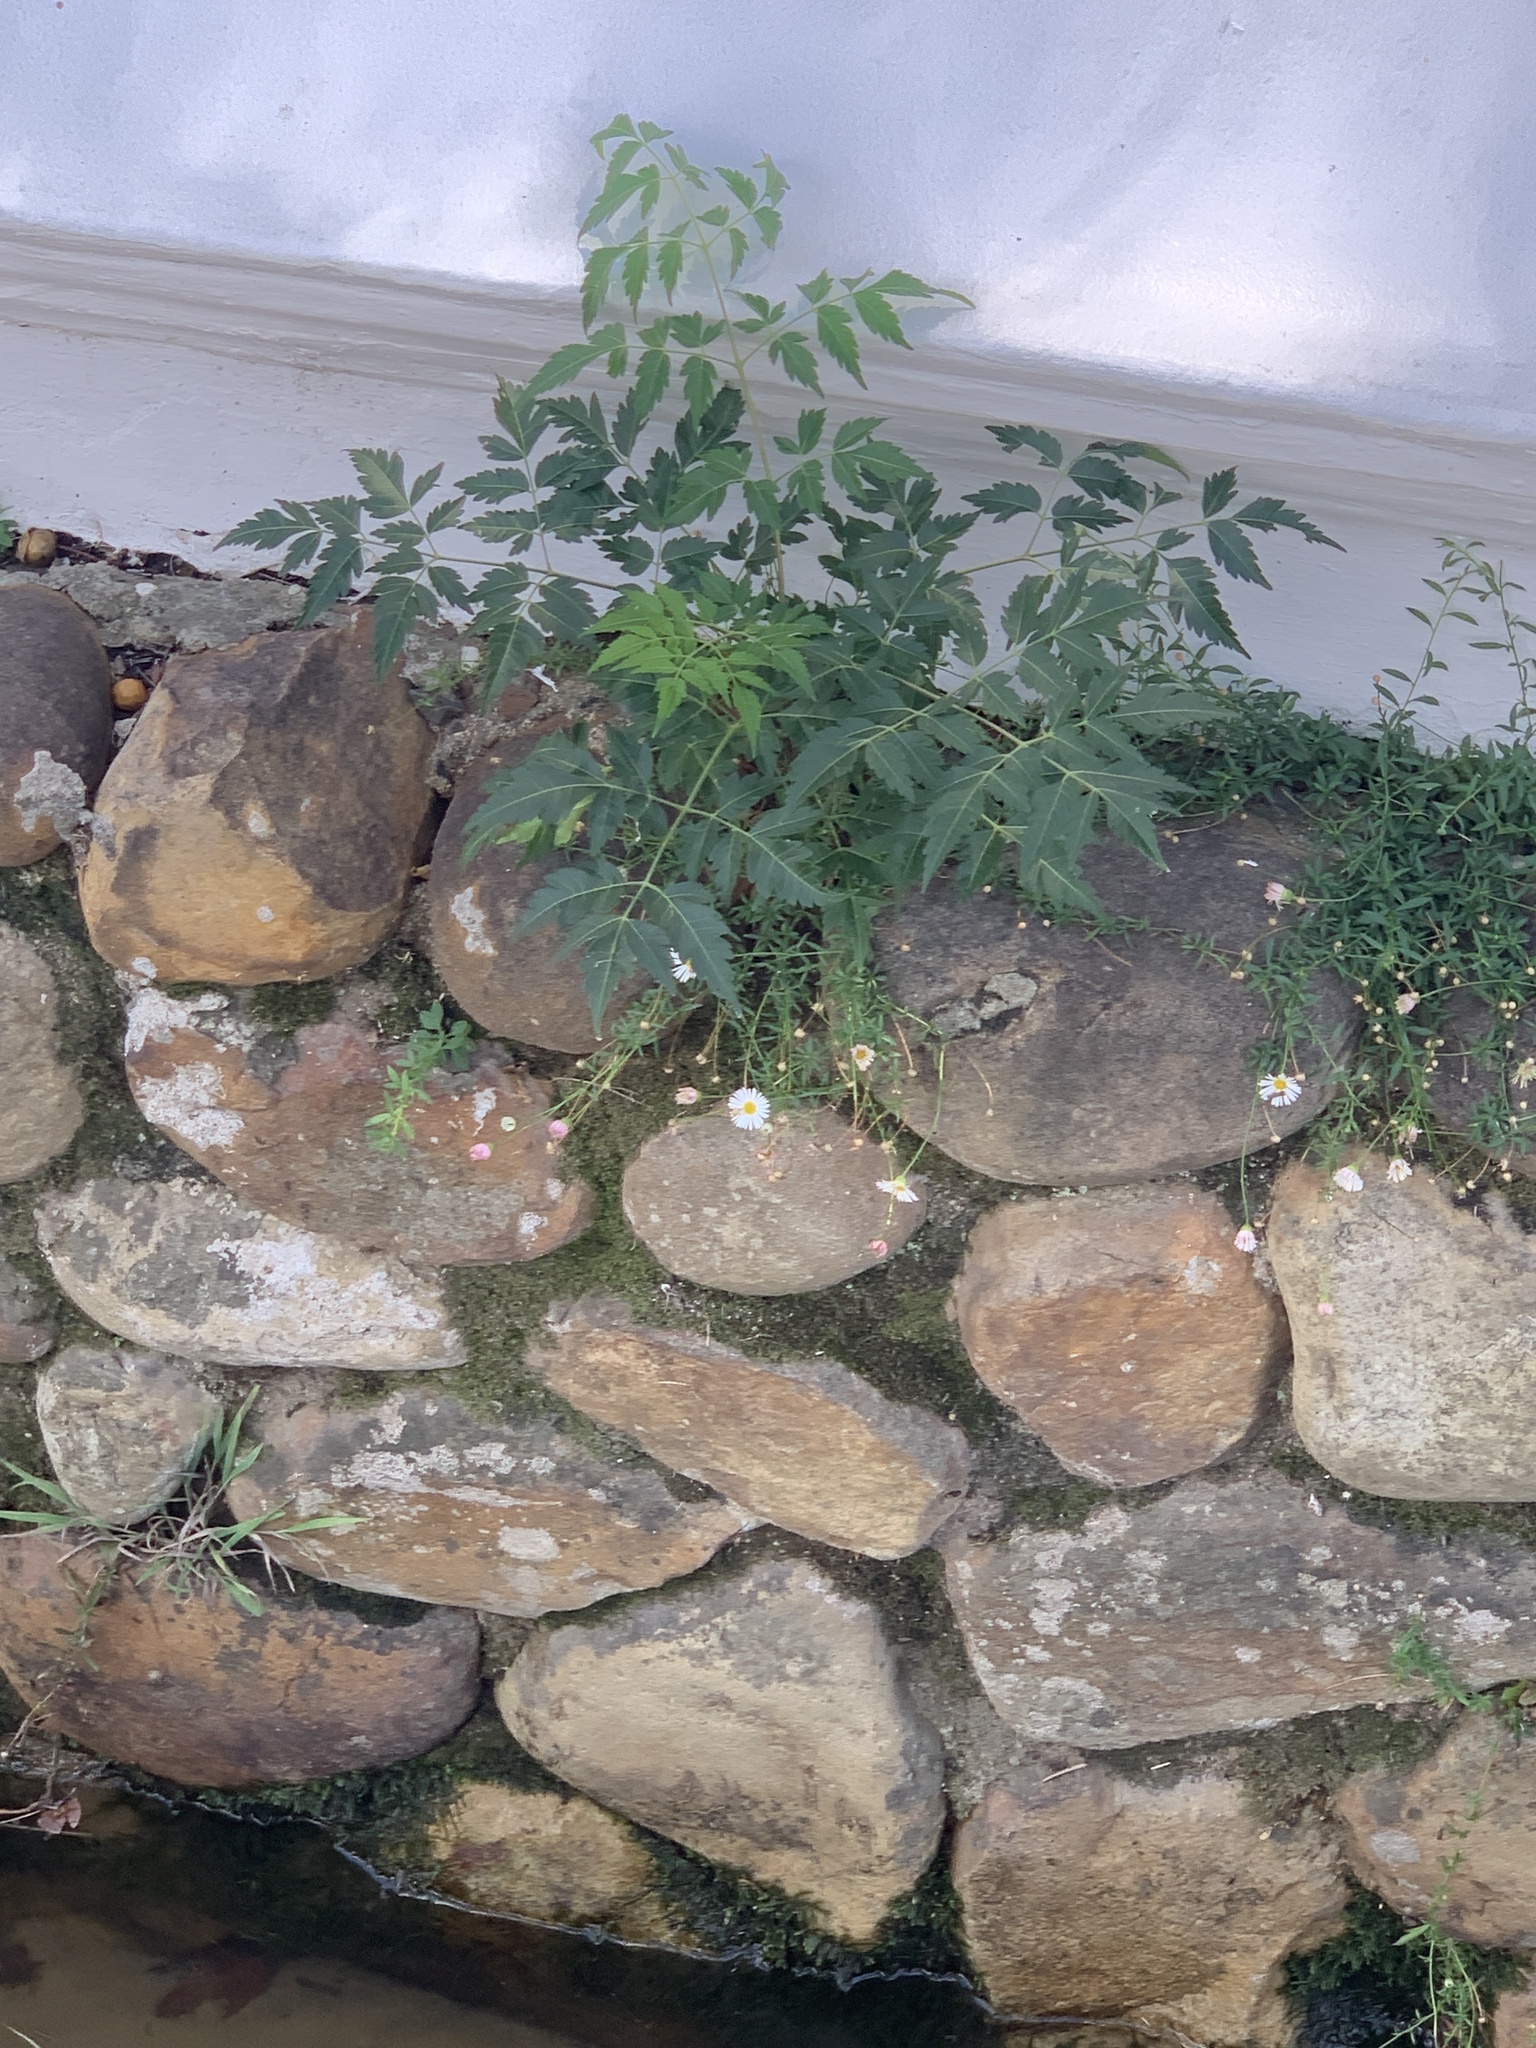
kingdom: Plantae
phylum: Tracheophyta
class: Magnoliopsida
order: Sapindales
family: Meliaceae
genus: Melia
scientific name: Melia azedarach
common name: Chinaberrytree
